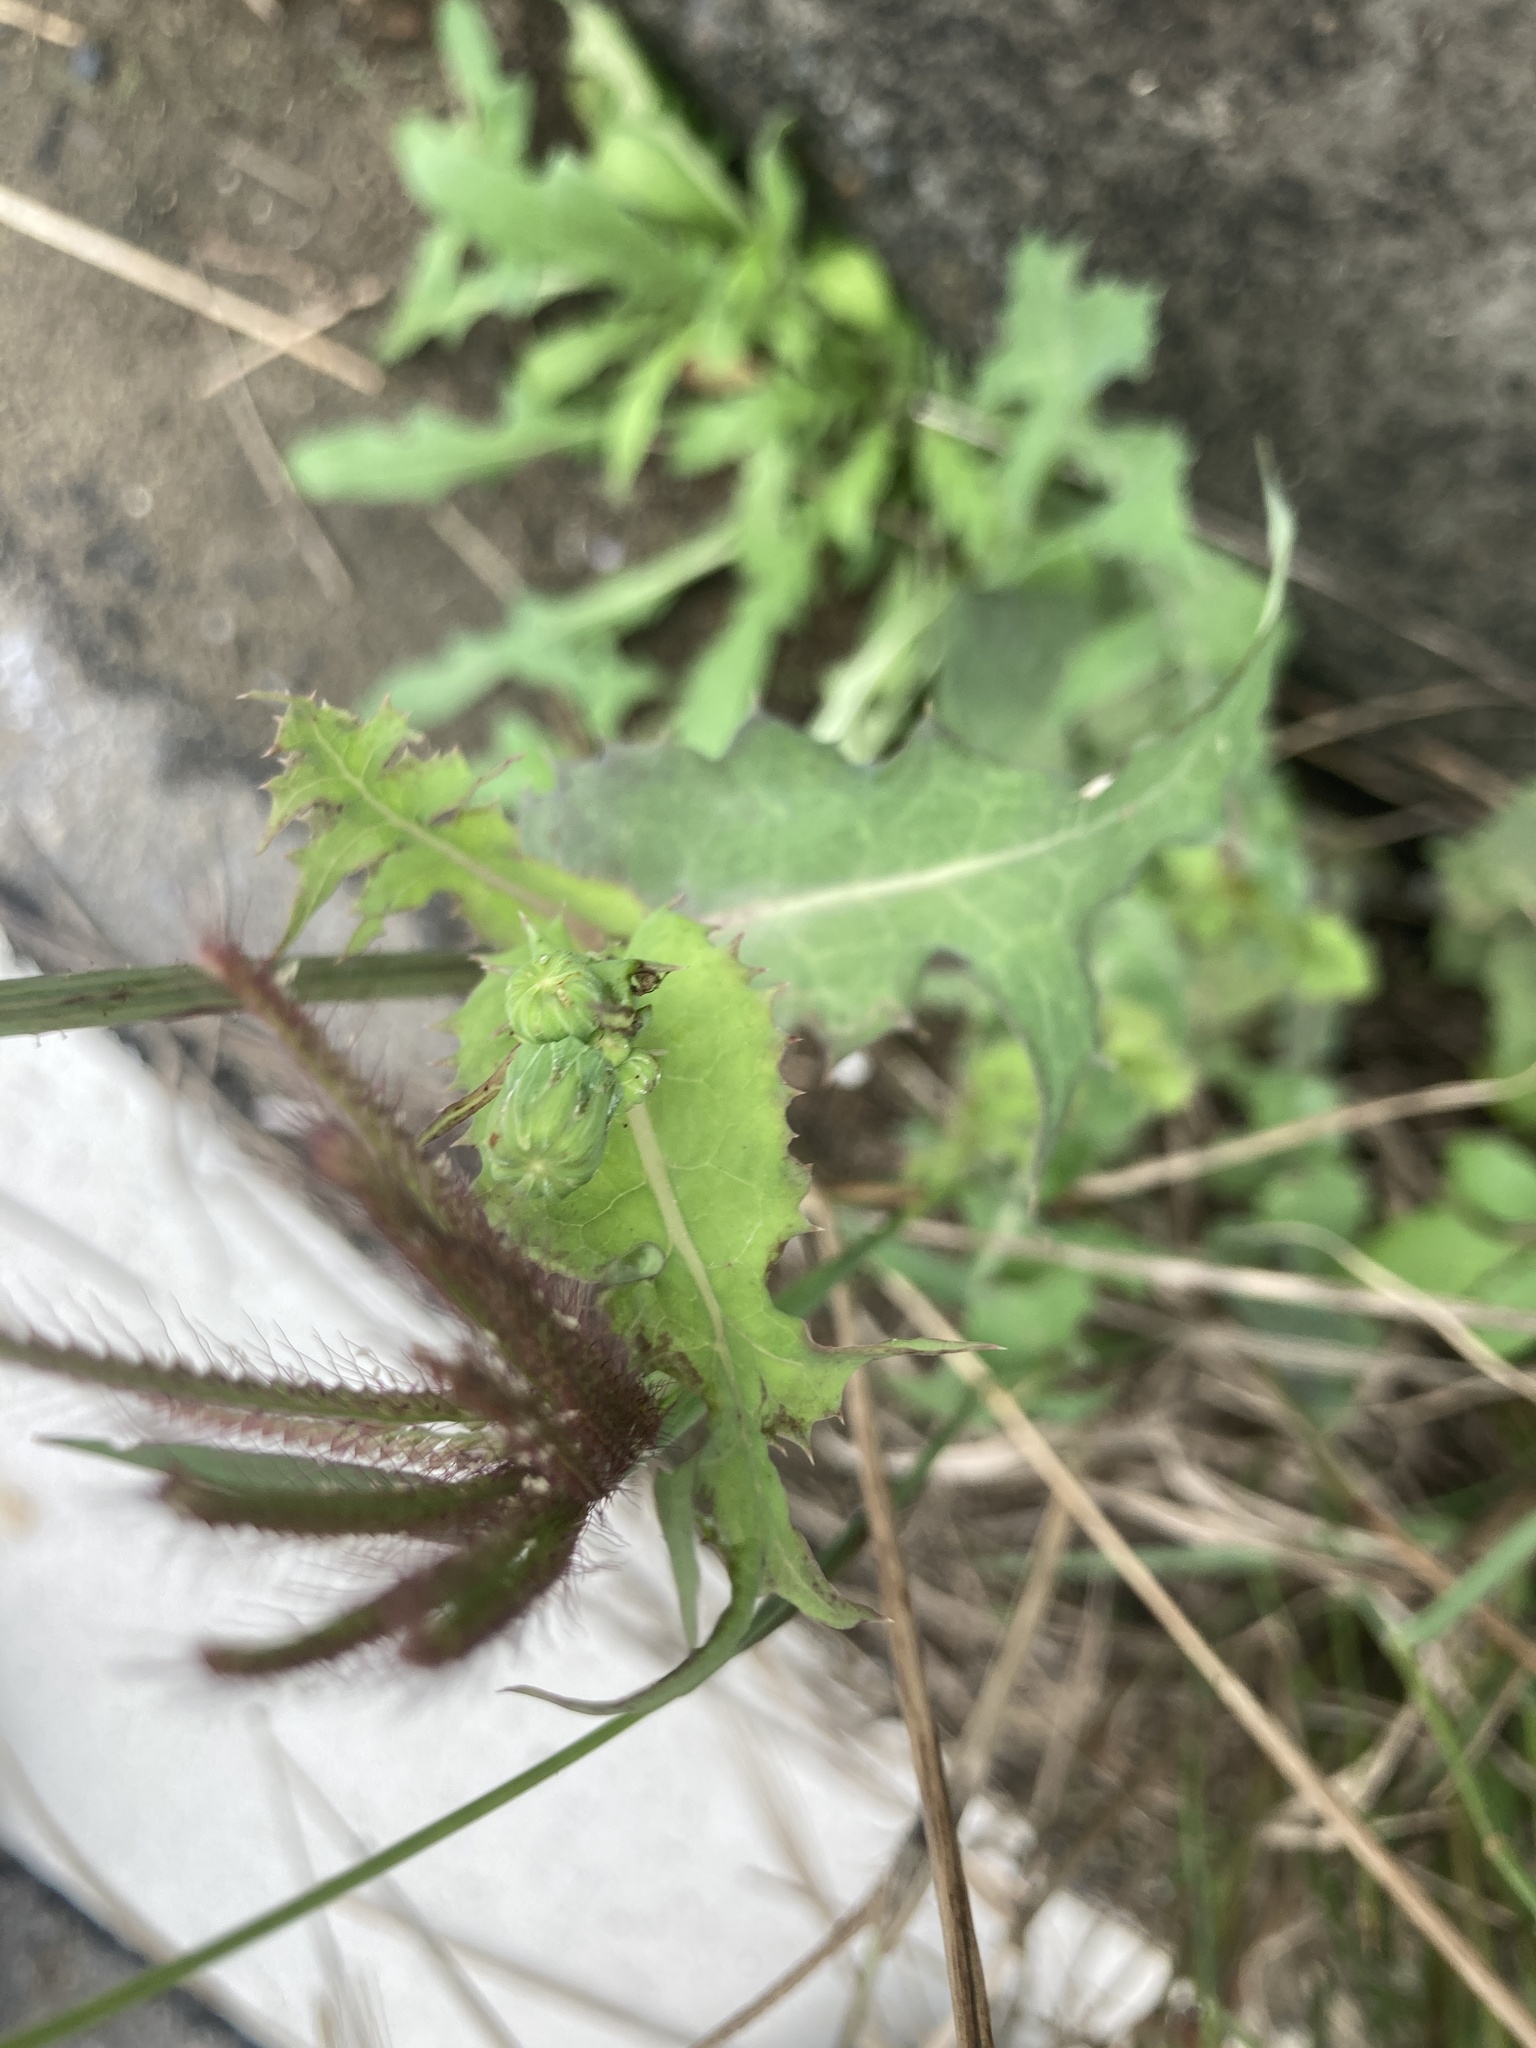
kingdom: Plantae
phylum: Tracheophyta
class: Magnoliopsida
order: Asterales
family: Asteraceae
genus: Sonchus
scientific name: Sonchus oleraceus
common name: Common sowthistle
